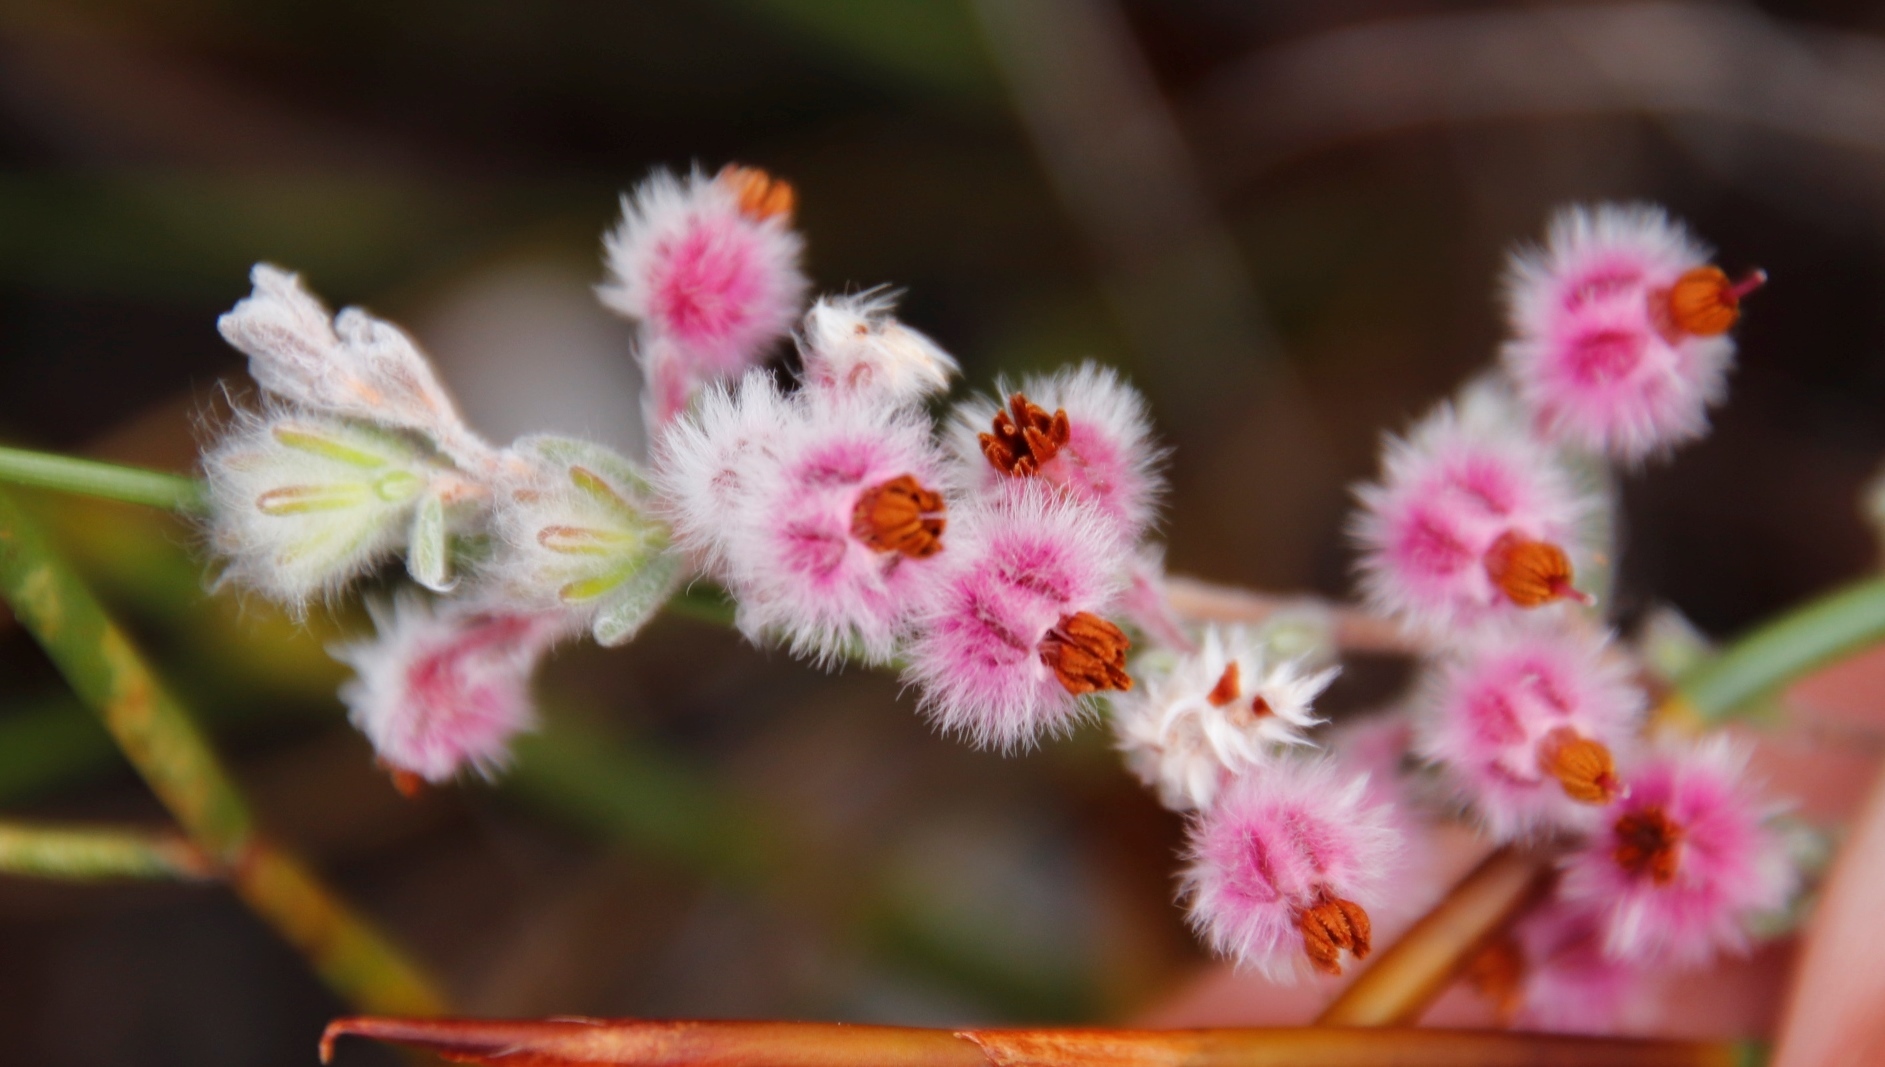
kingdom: Plantae
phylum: Tracheophyta
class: Magnoliopsida
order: Ericales
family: Ericaceae
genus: Erica
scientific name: Erica bruniades
